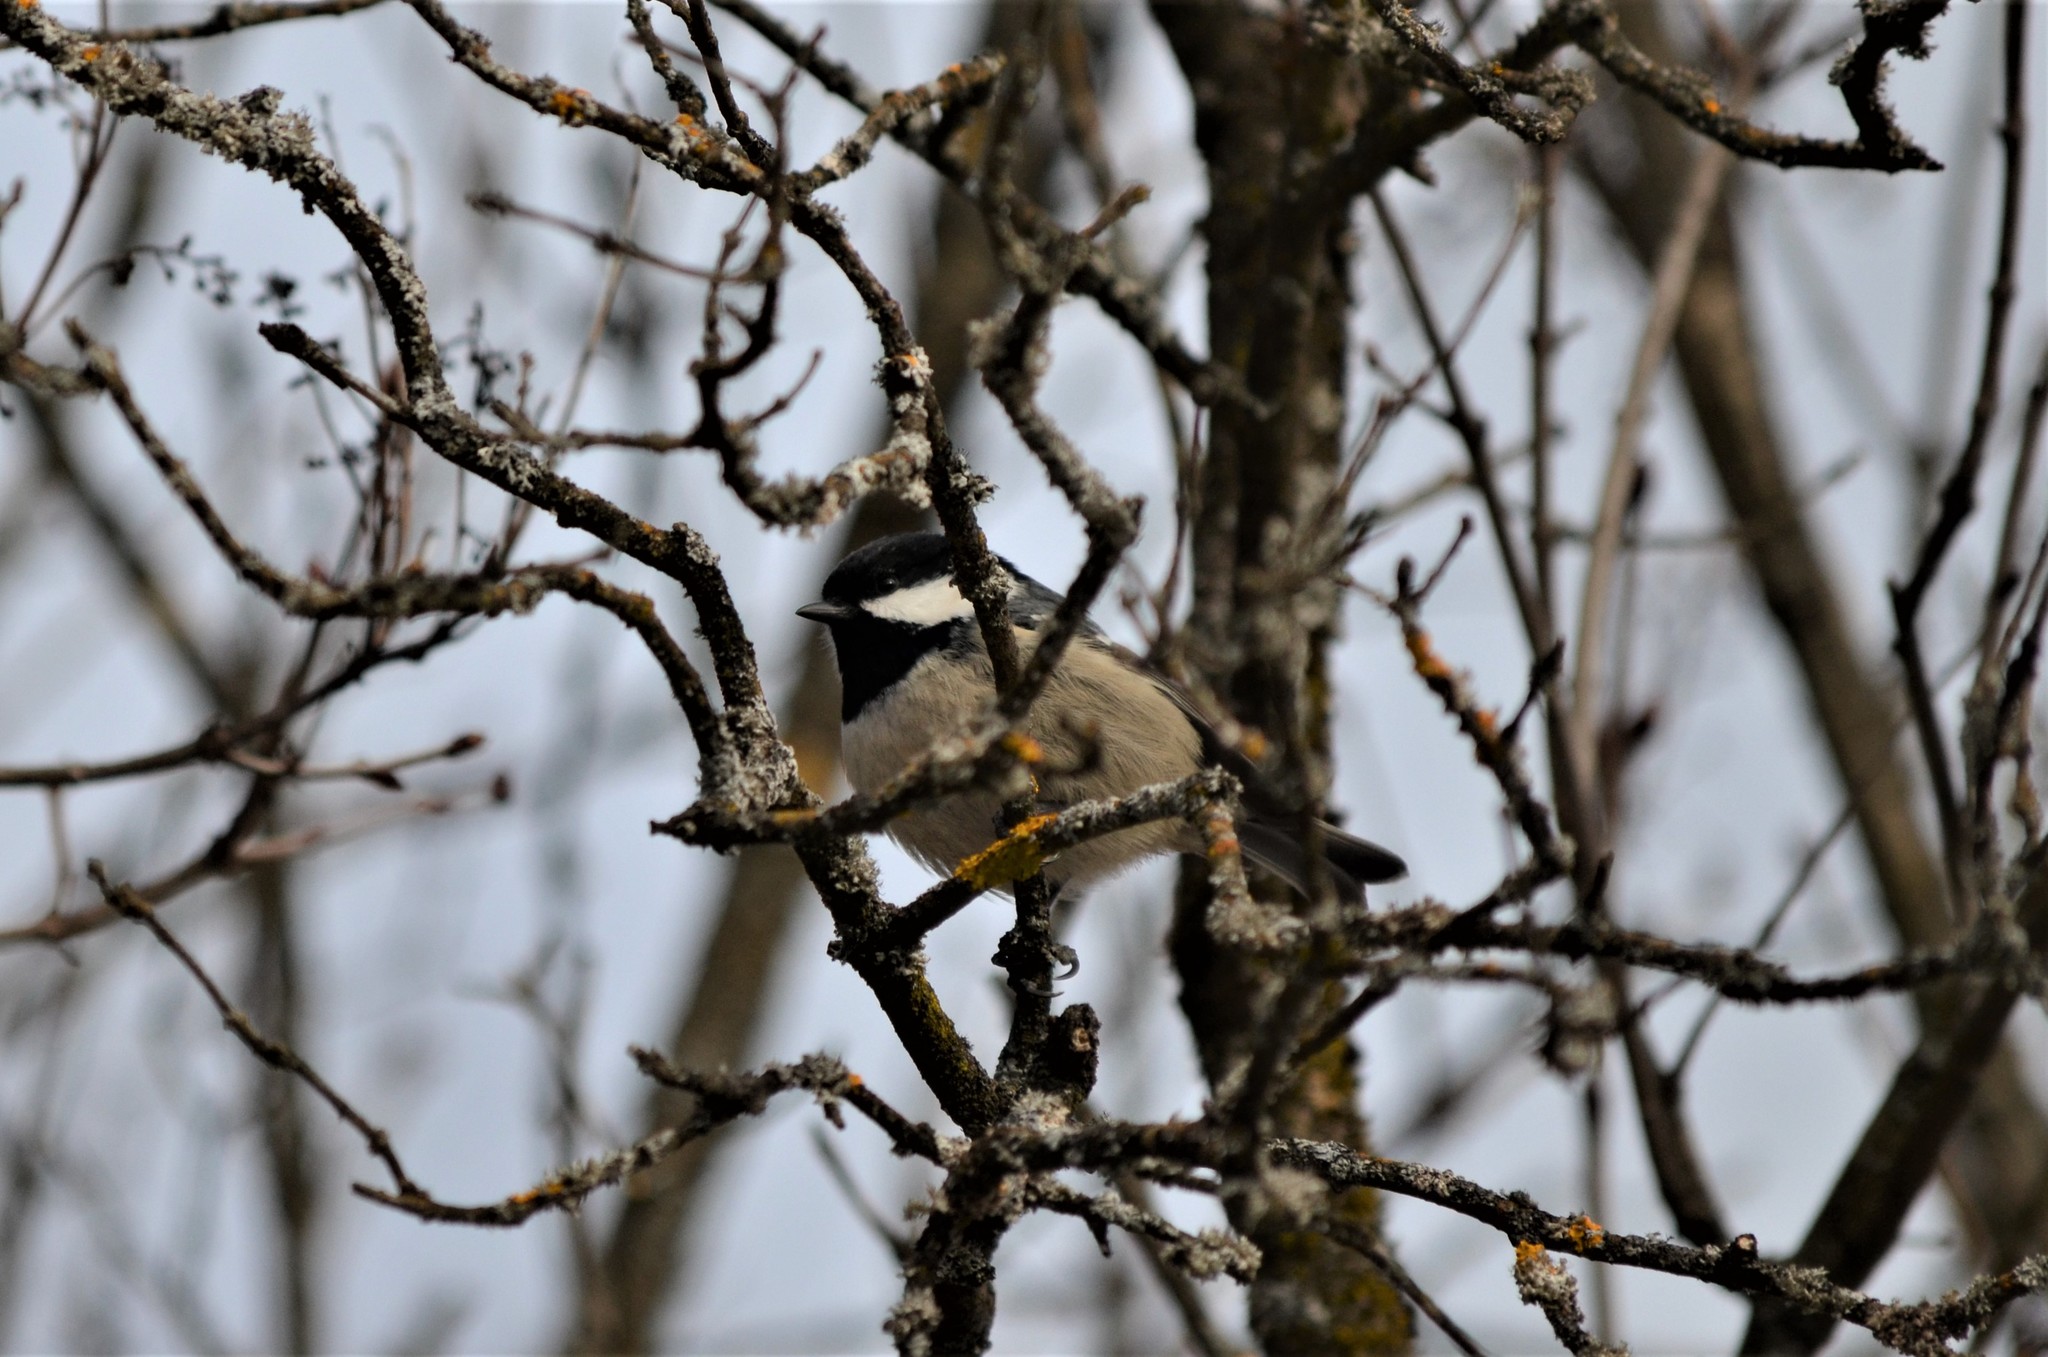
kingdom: Animalia
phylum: Chordata
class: Aves
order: Passeriformes
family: Paridae
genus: Periparus
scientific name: Periparus ater
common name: Coal tit
